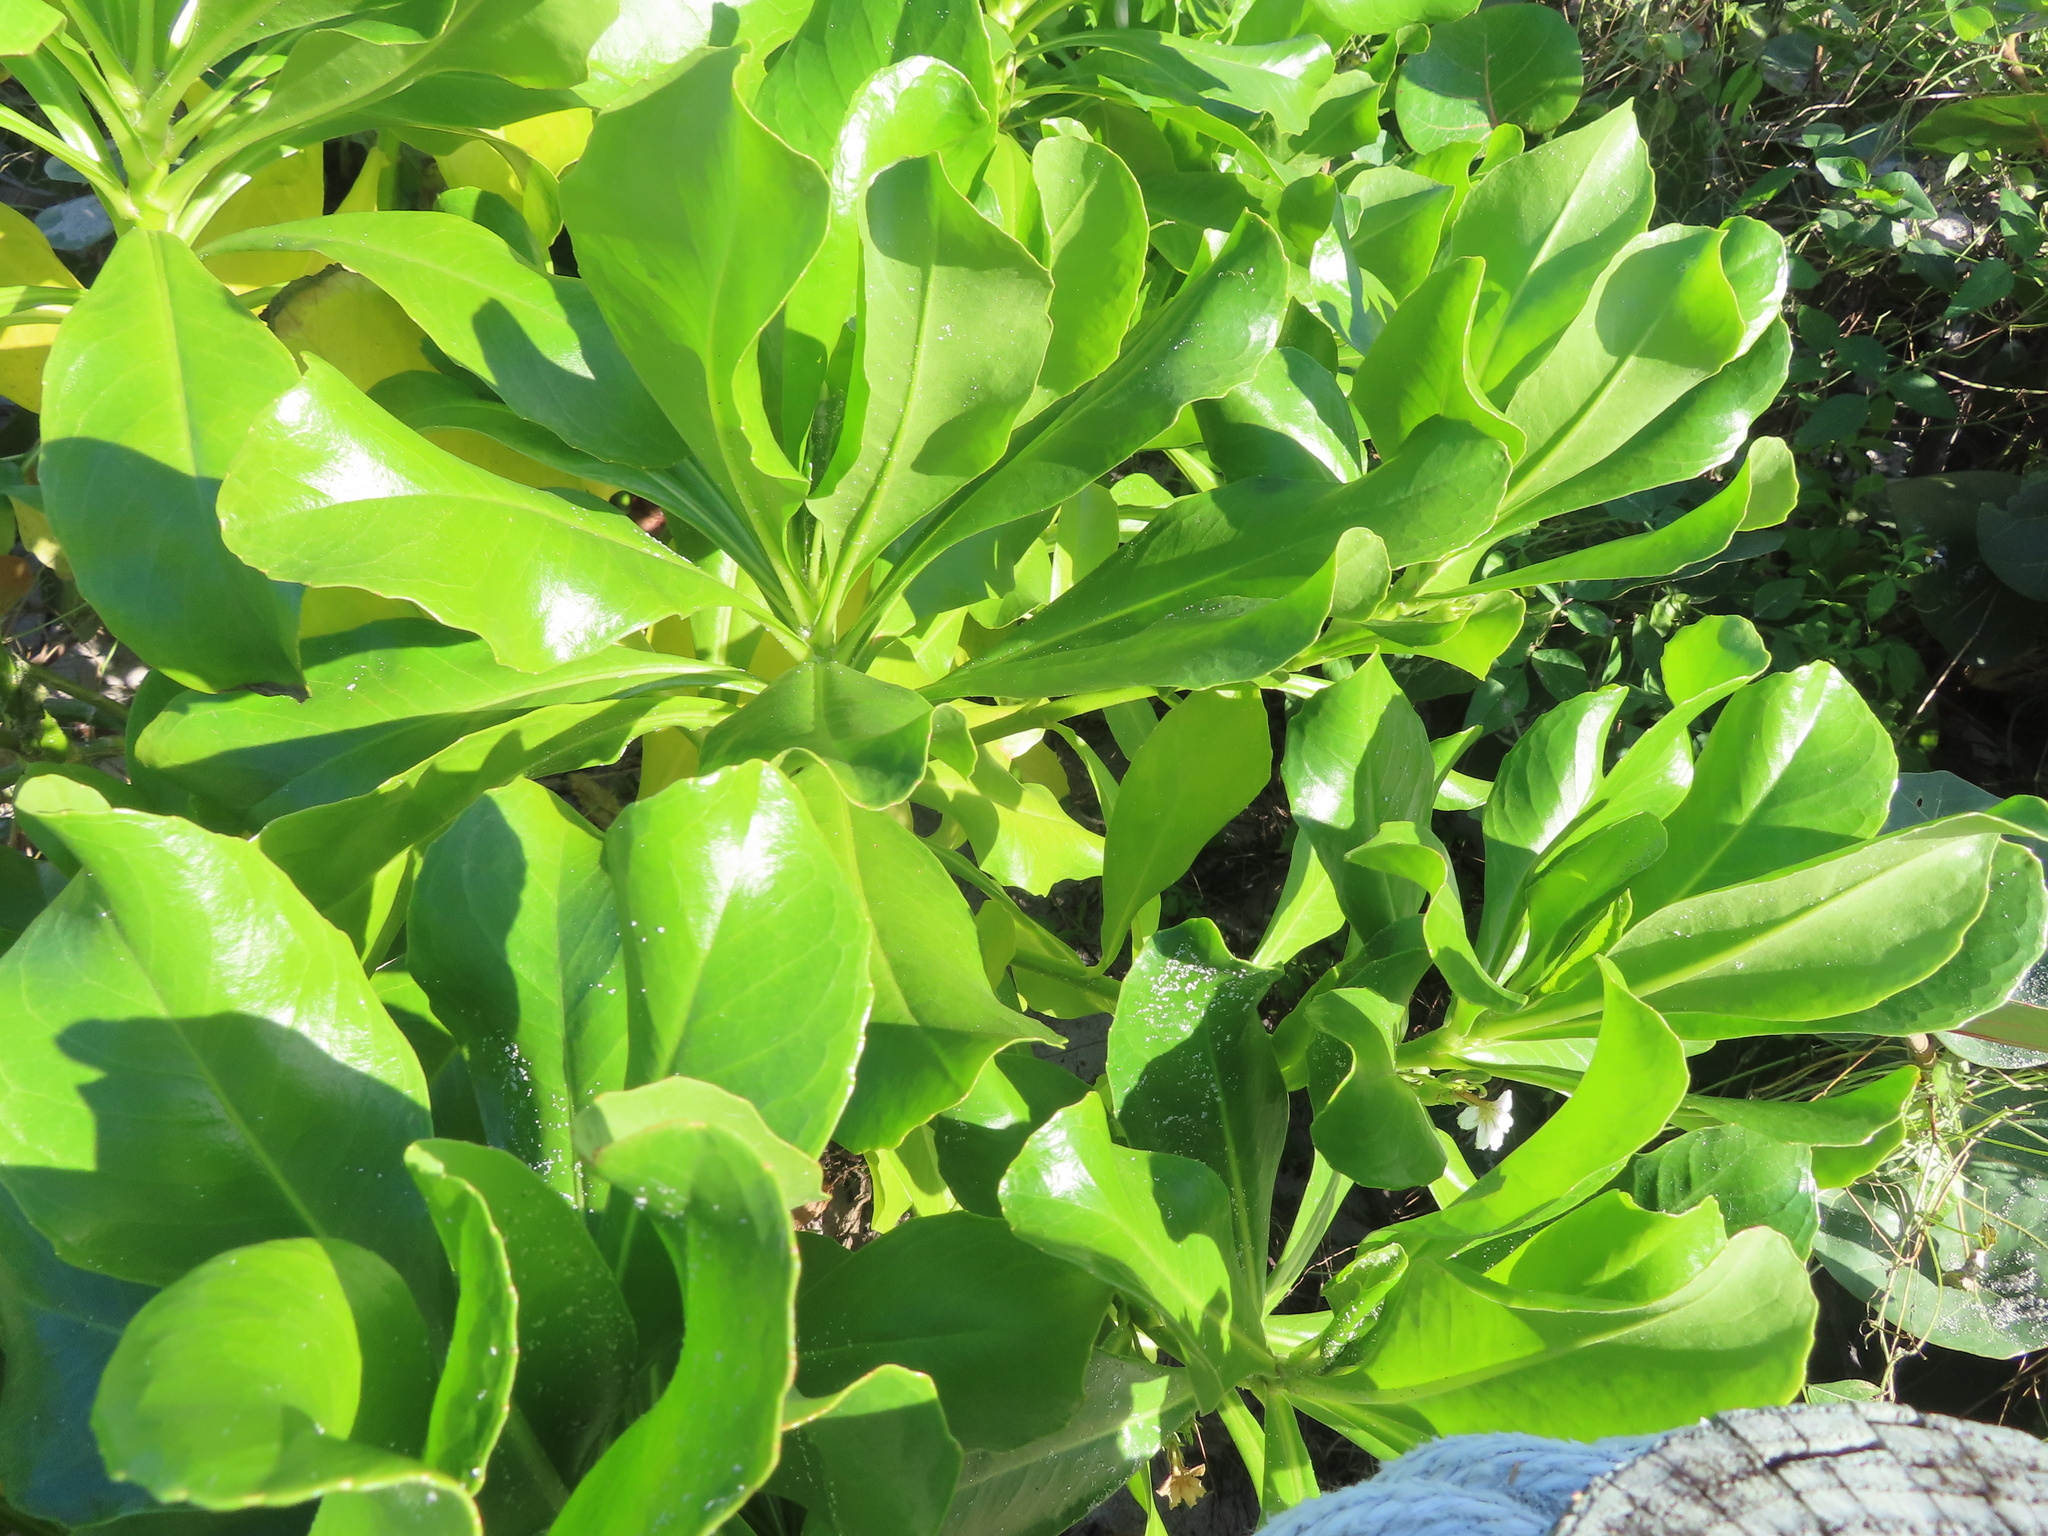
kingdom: Plantae
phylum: Tracheophyta
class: Magnoliopsida
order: Asterales
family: Goodeniaceae
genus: Scaevola
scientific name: Scaevola taccada
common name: Sea lettucetree
